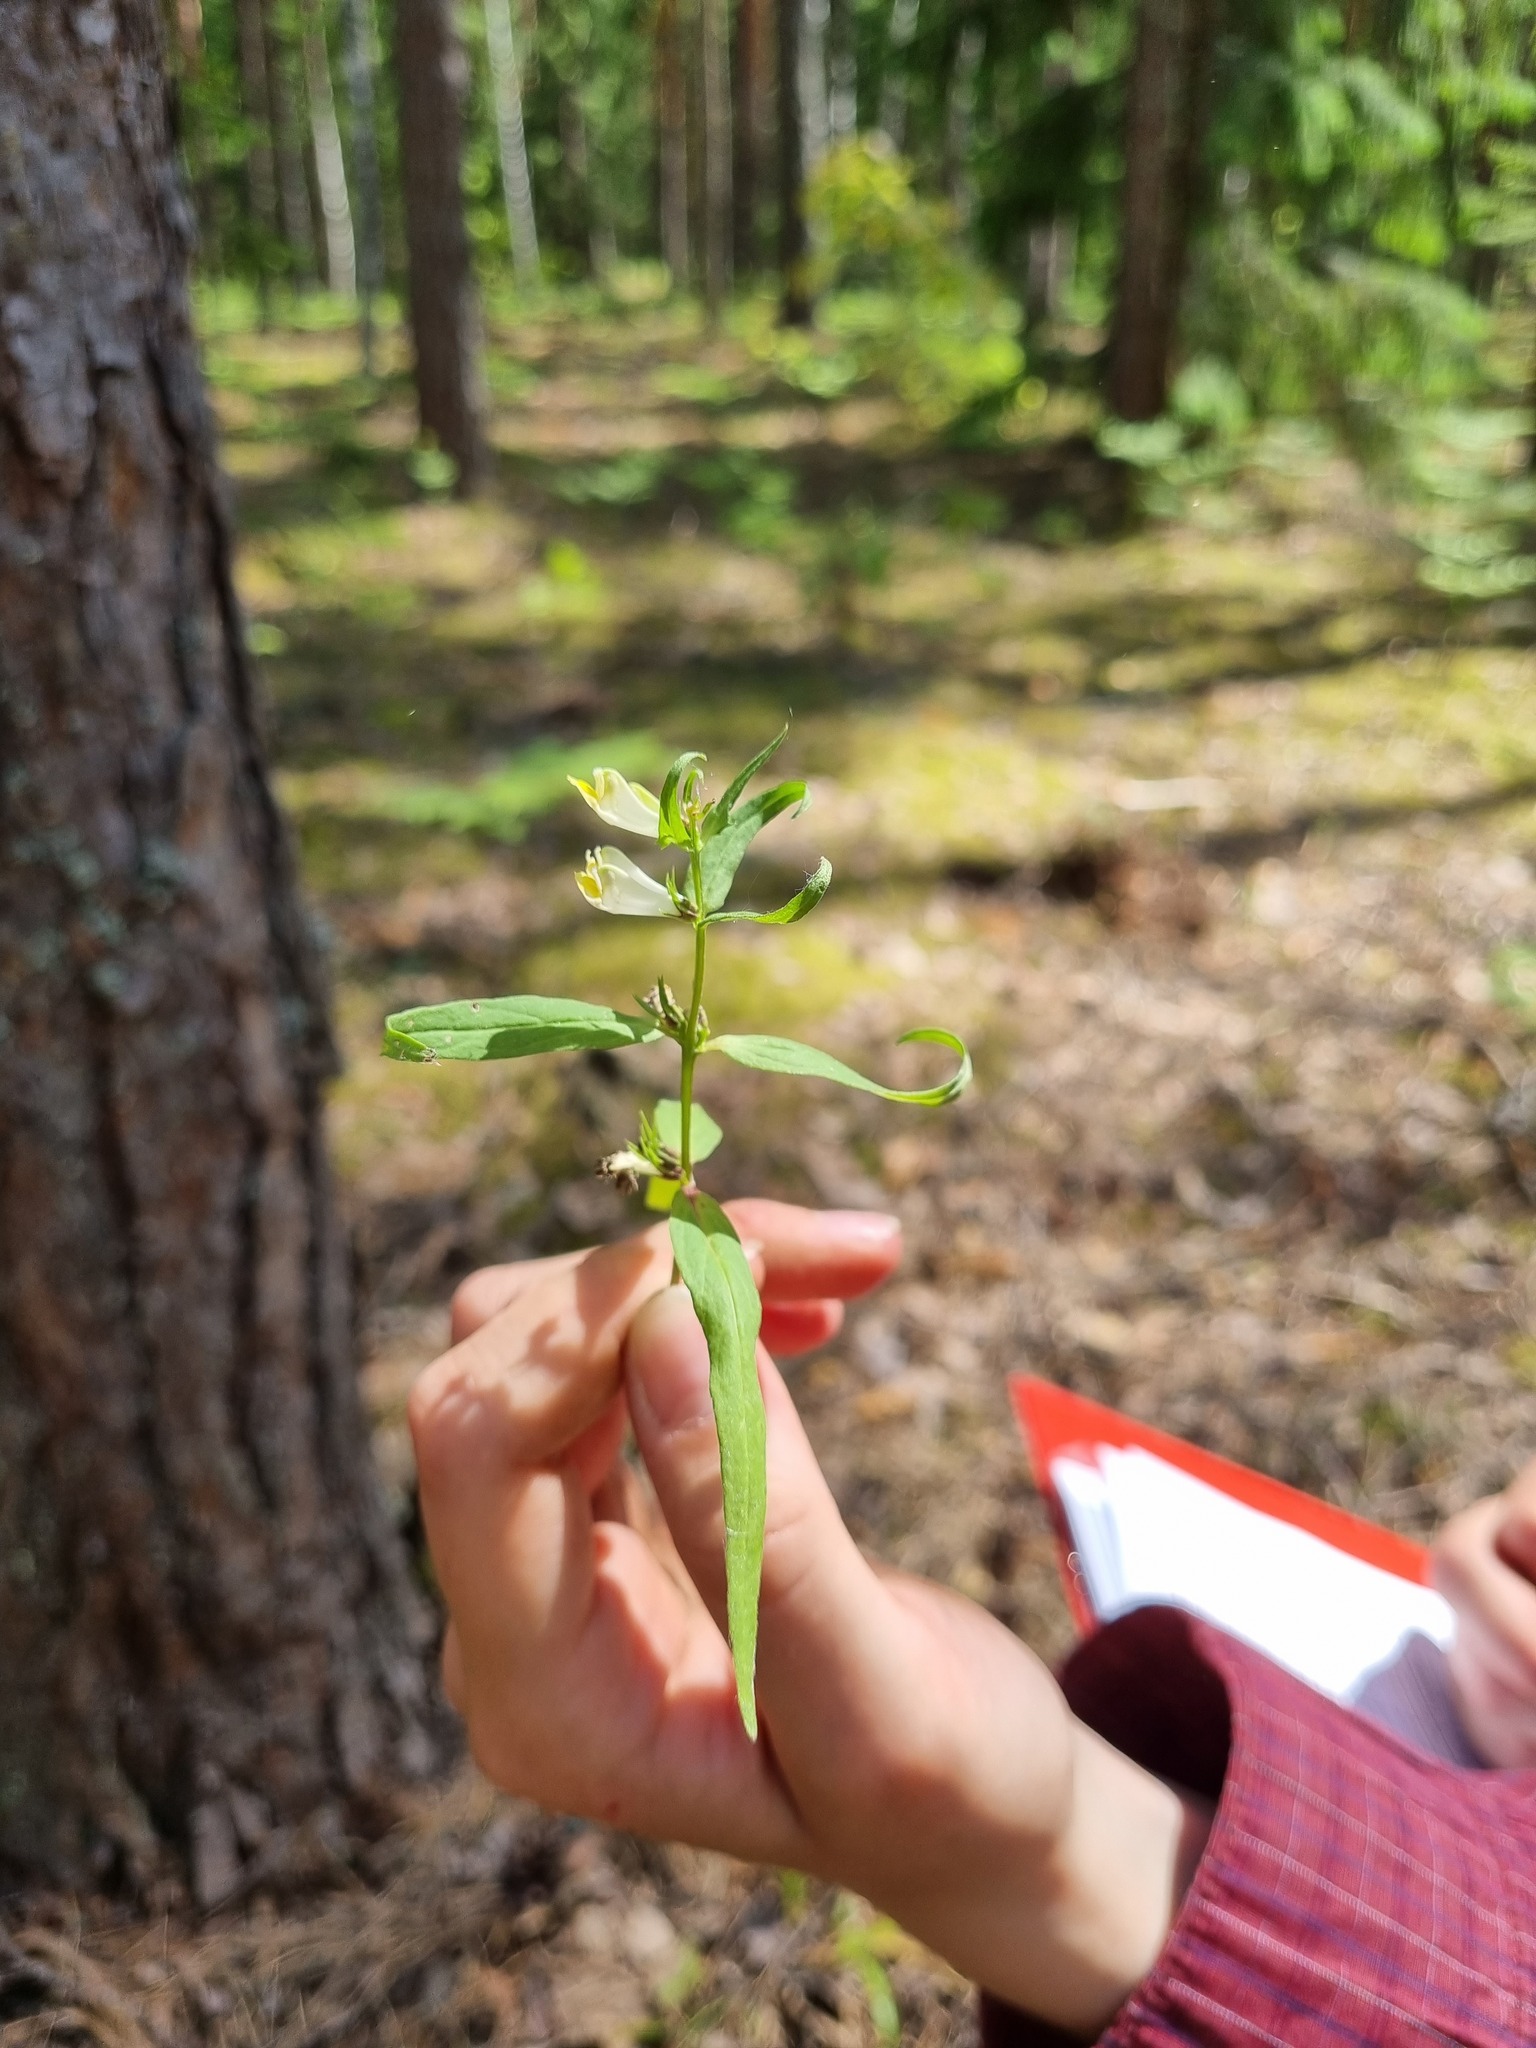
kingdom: Plantae
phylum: Tracheophyta
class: Magnoliopsida
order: Lamiales
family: Orobanchaceae
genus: Melampyrum
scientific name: Melampyrum pratense
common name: Common cow-wheat
